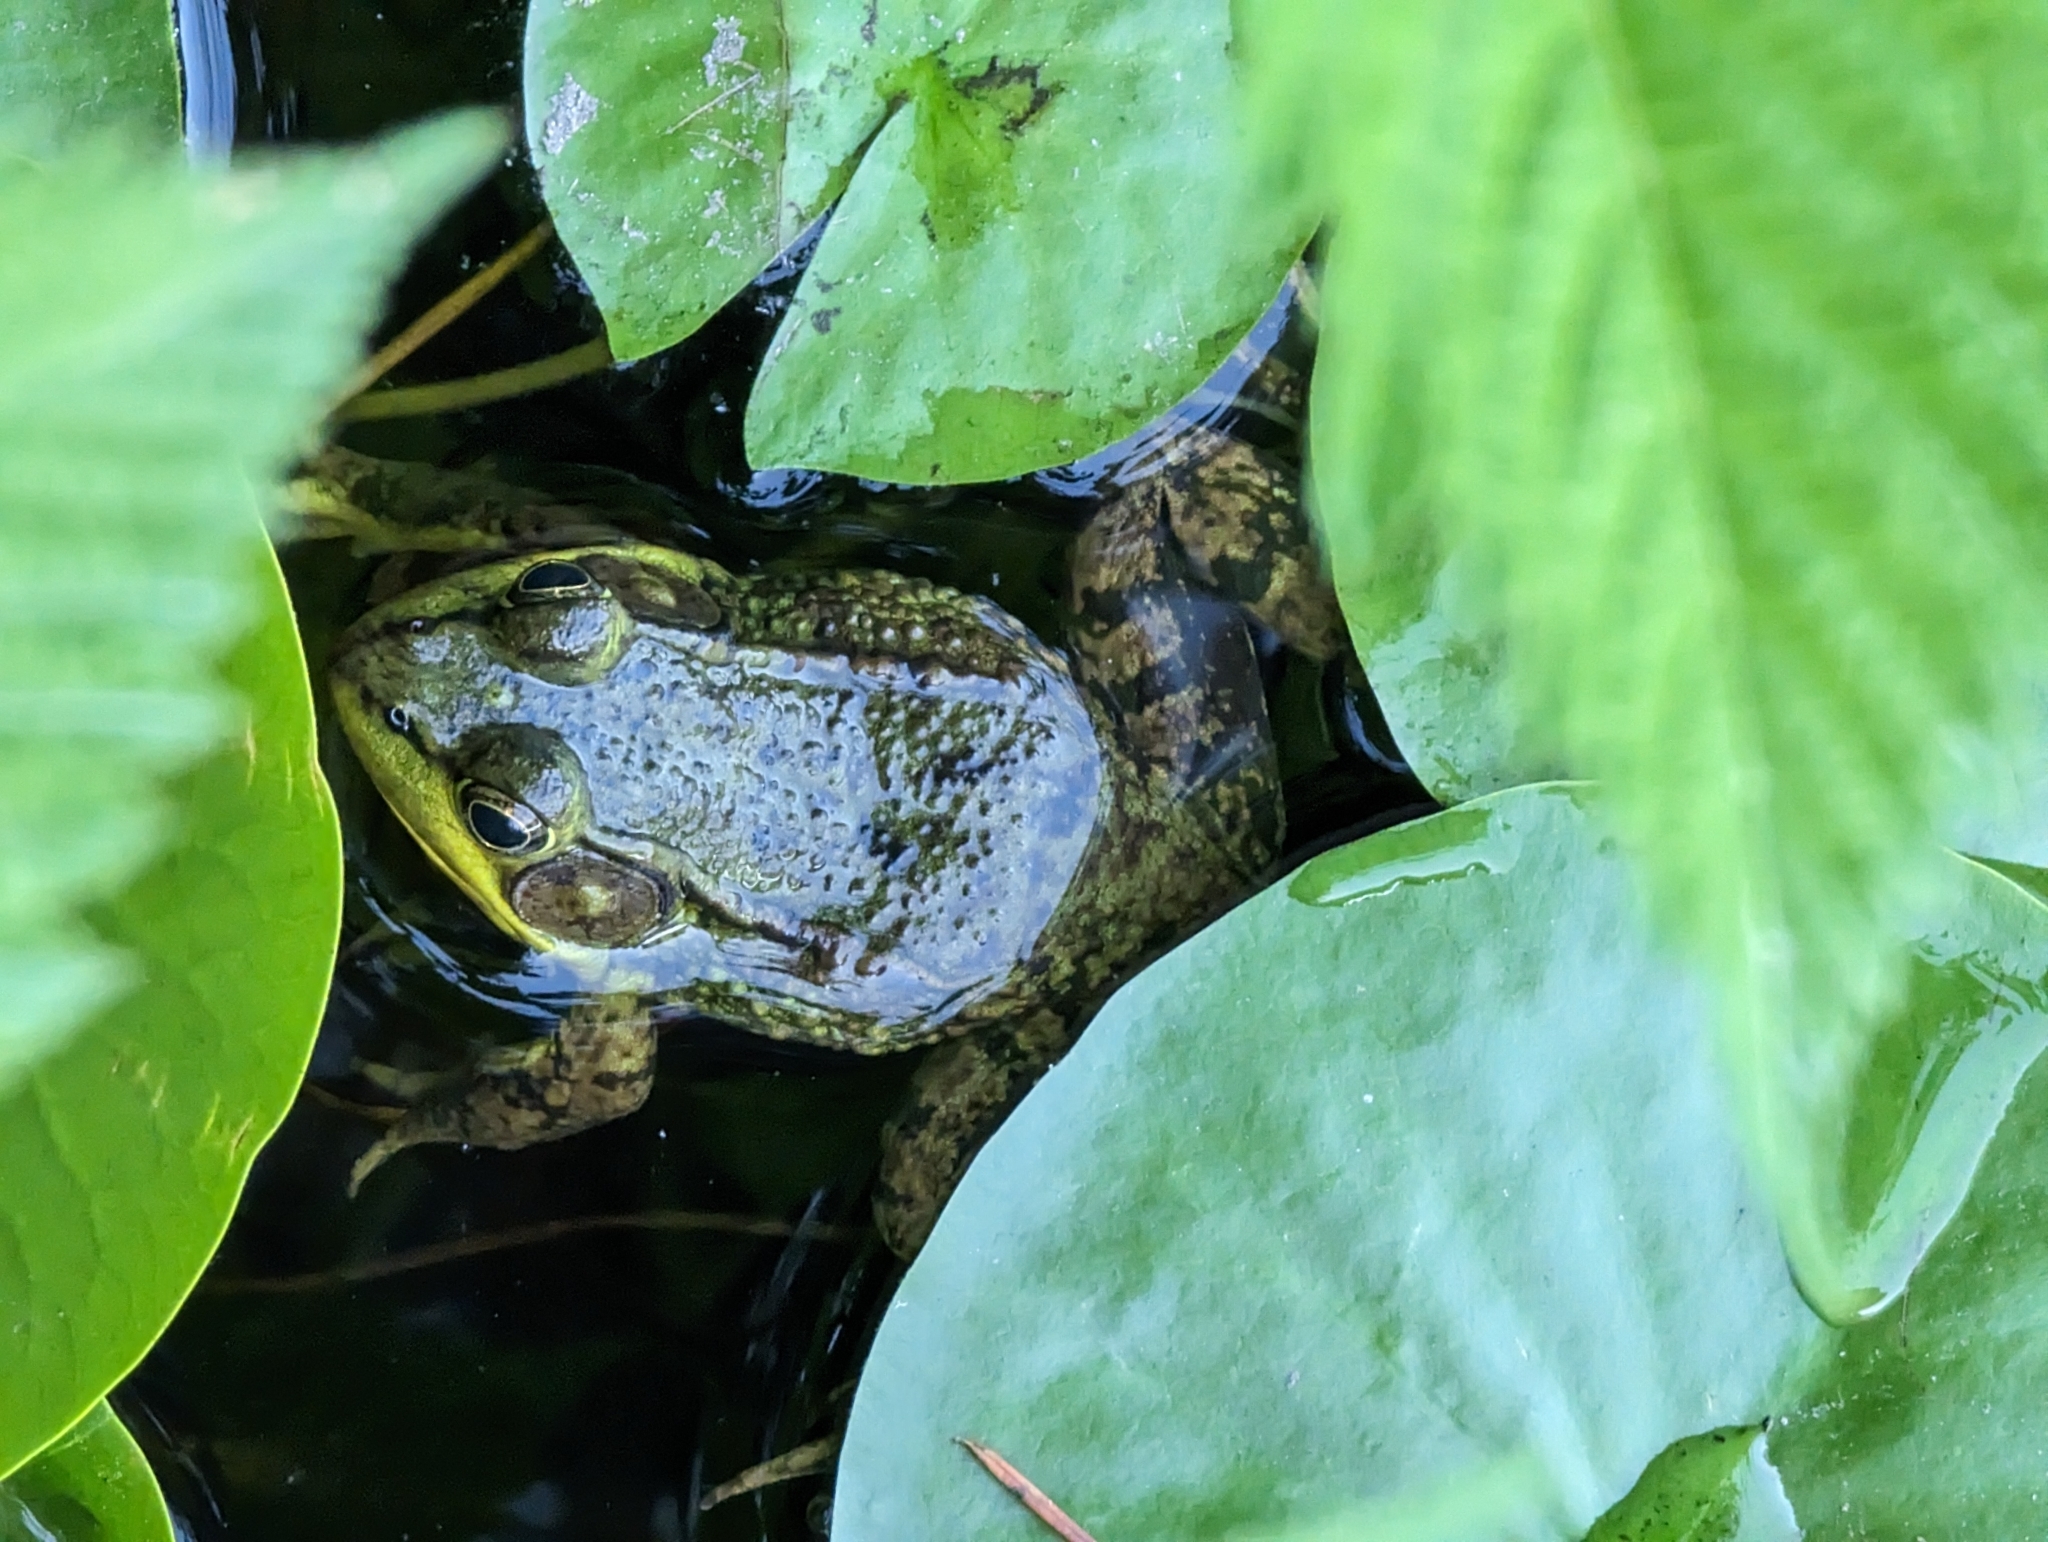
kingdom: Animalia
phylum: Chordata
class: Amphibia
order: Anura
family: Ranidae
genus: Lithobates
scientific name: Lithobates clamitans
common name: Green frog
